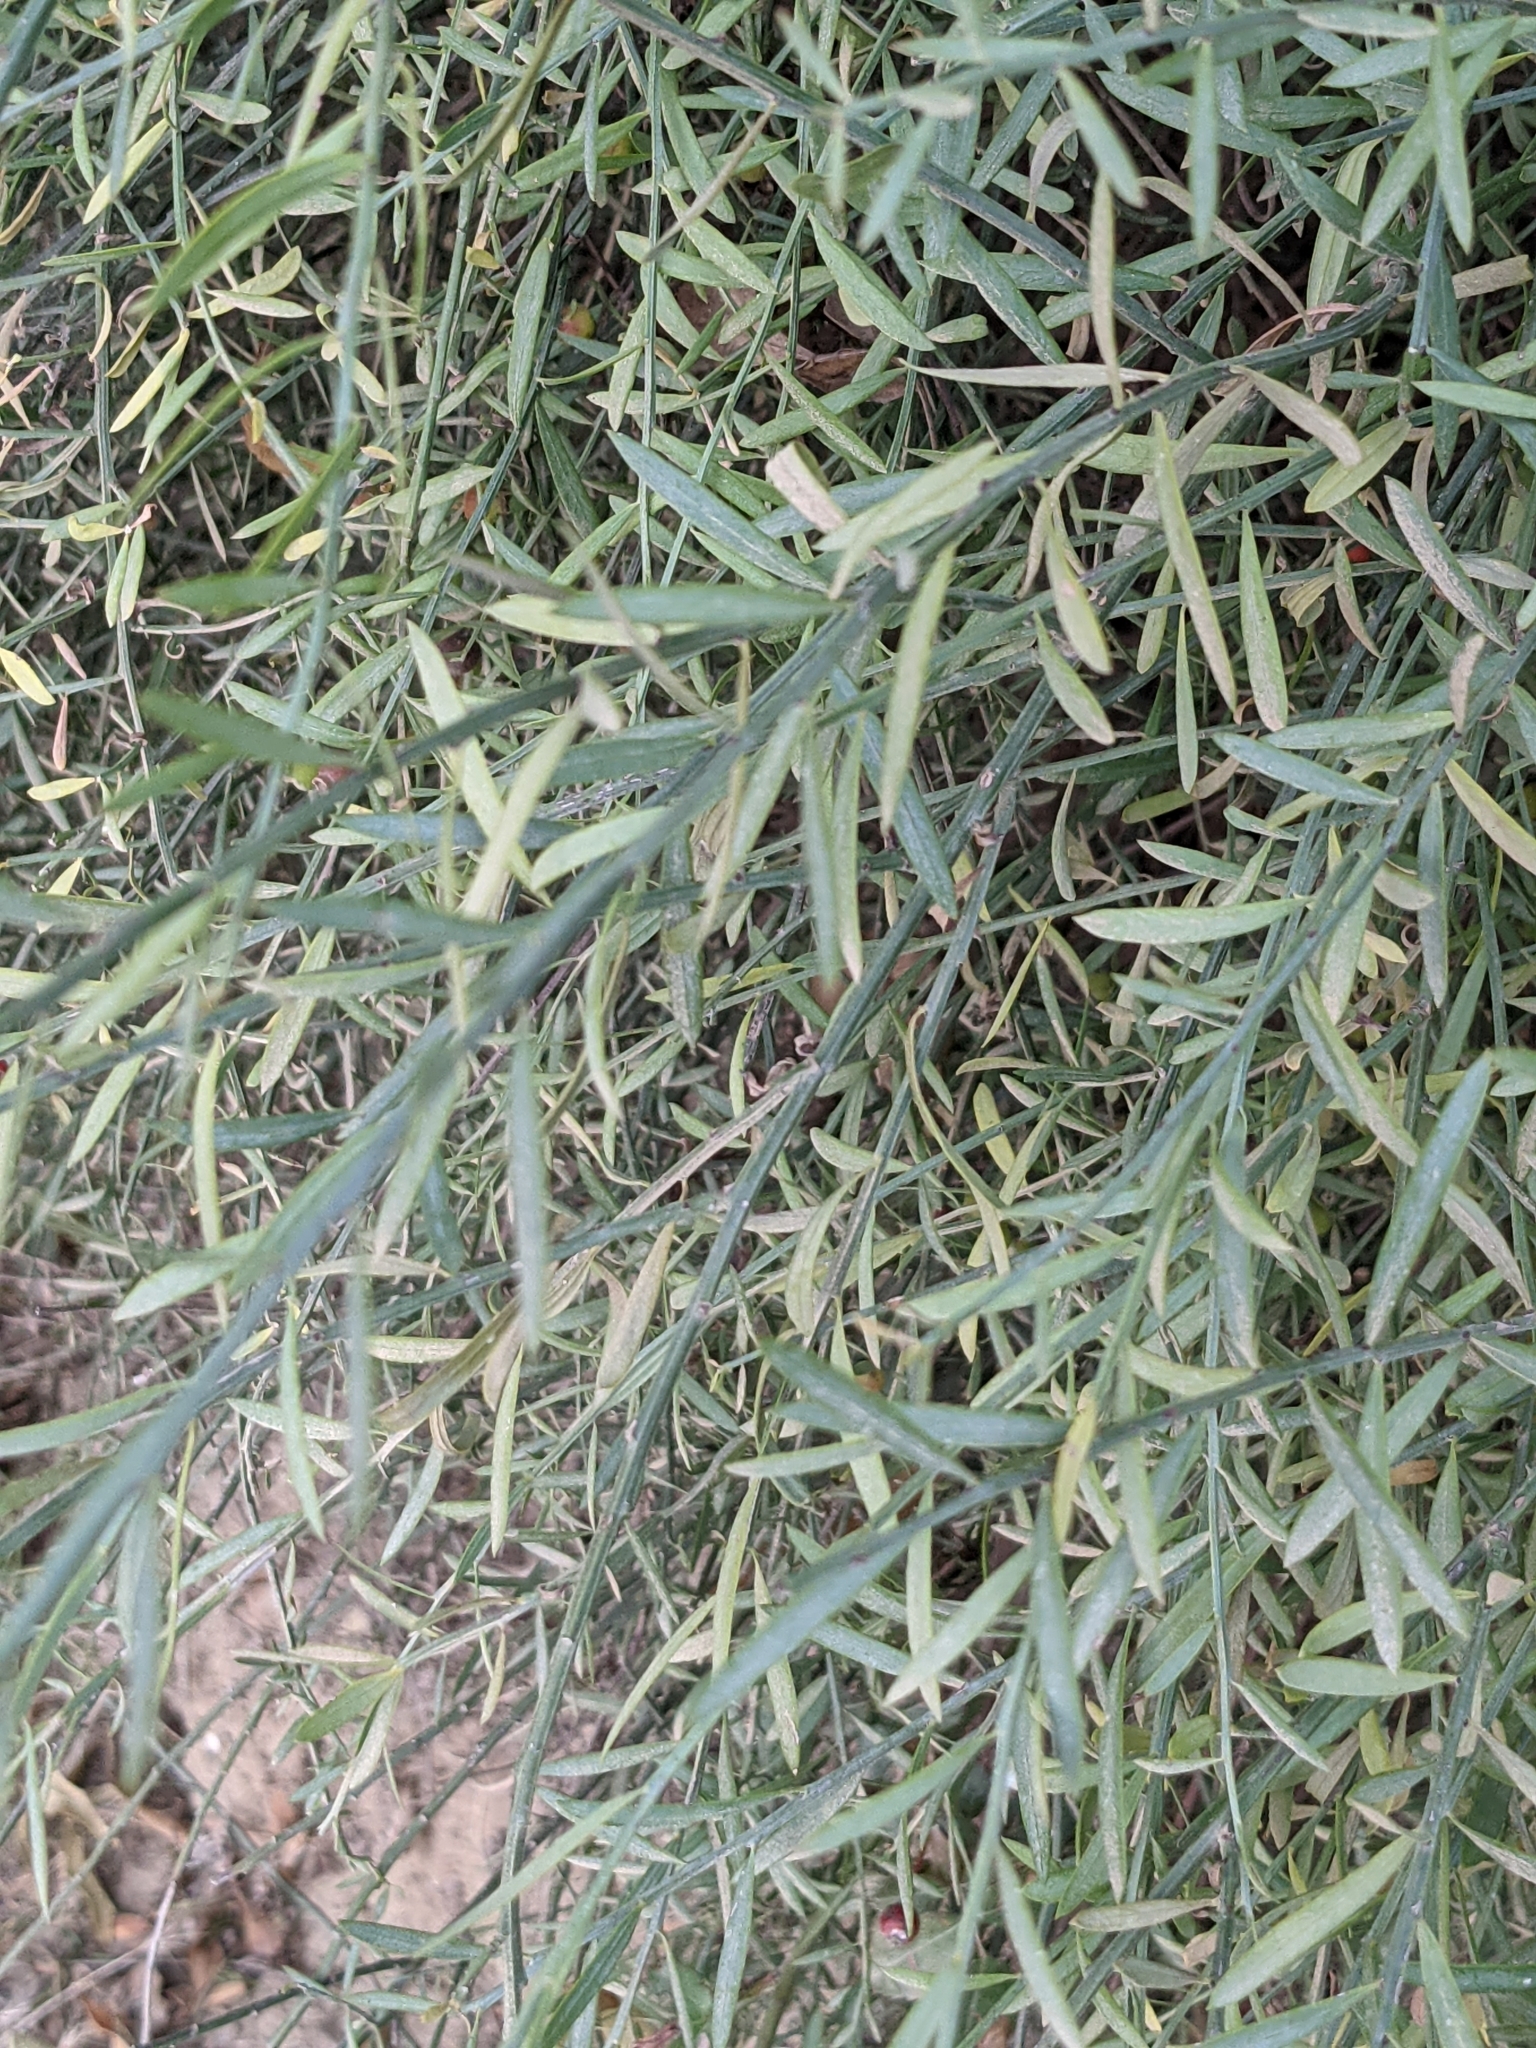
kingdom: Plantae
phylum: Tracheophyta
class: Magnoliopsida
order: Santalales
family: Santalaceae
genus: Osyris
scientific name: Osyris alba
